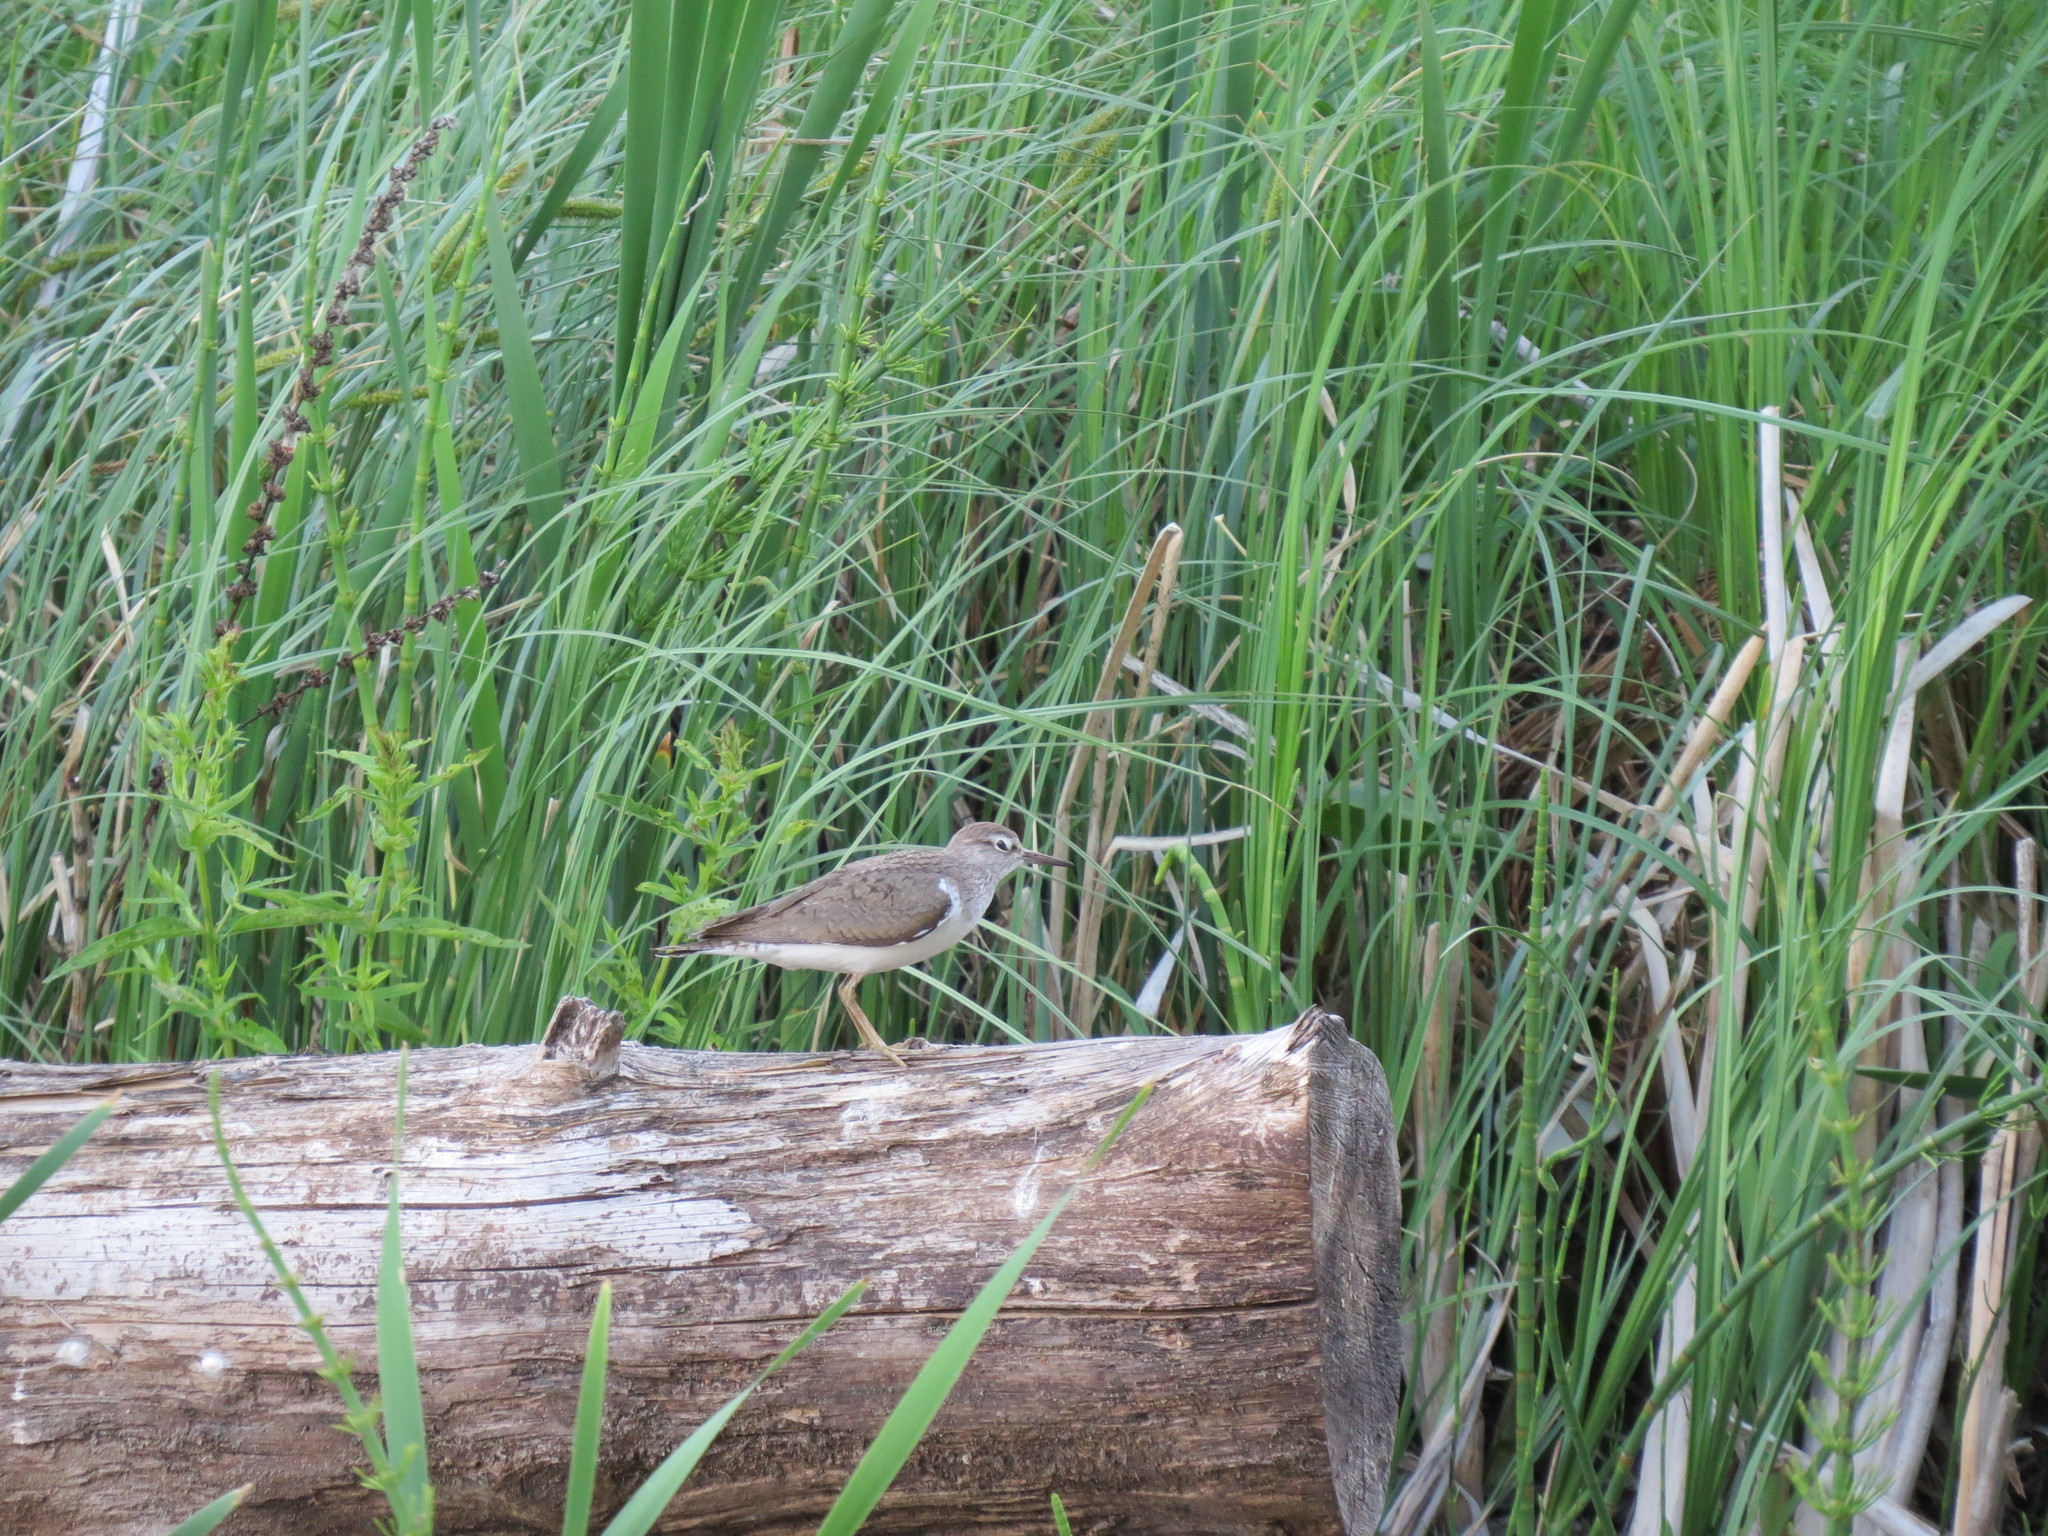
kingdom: Animalia
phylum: Chordata
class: Aves
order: Charadriiformes
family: Scolopacidae
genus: Actitis
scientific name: Actitis hypoleucos
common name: Common sandpiper
